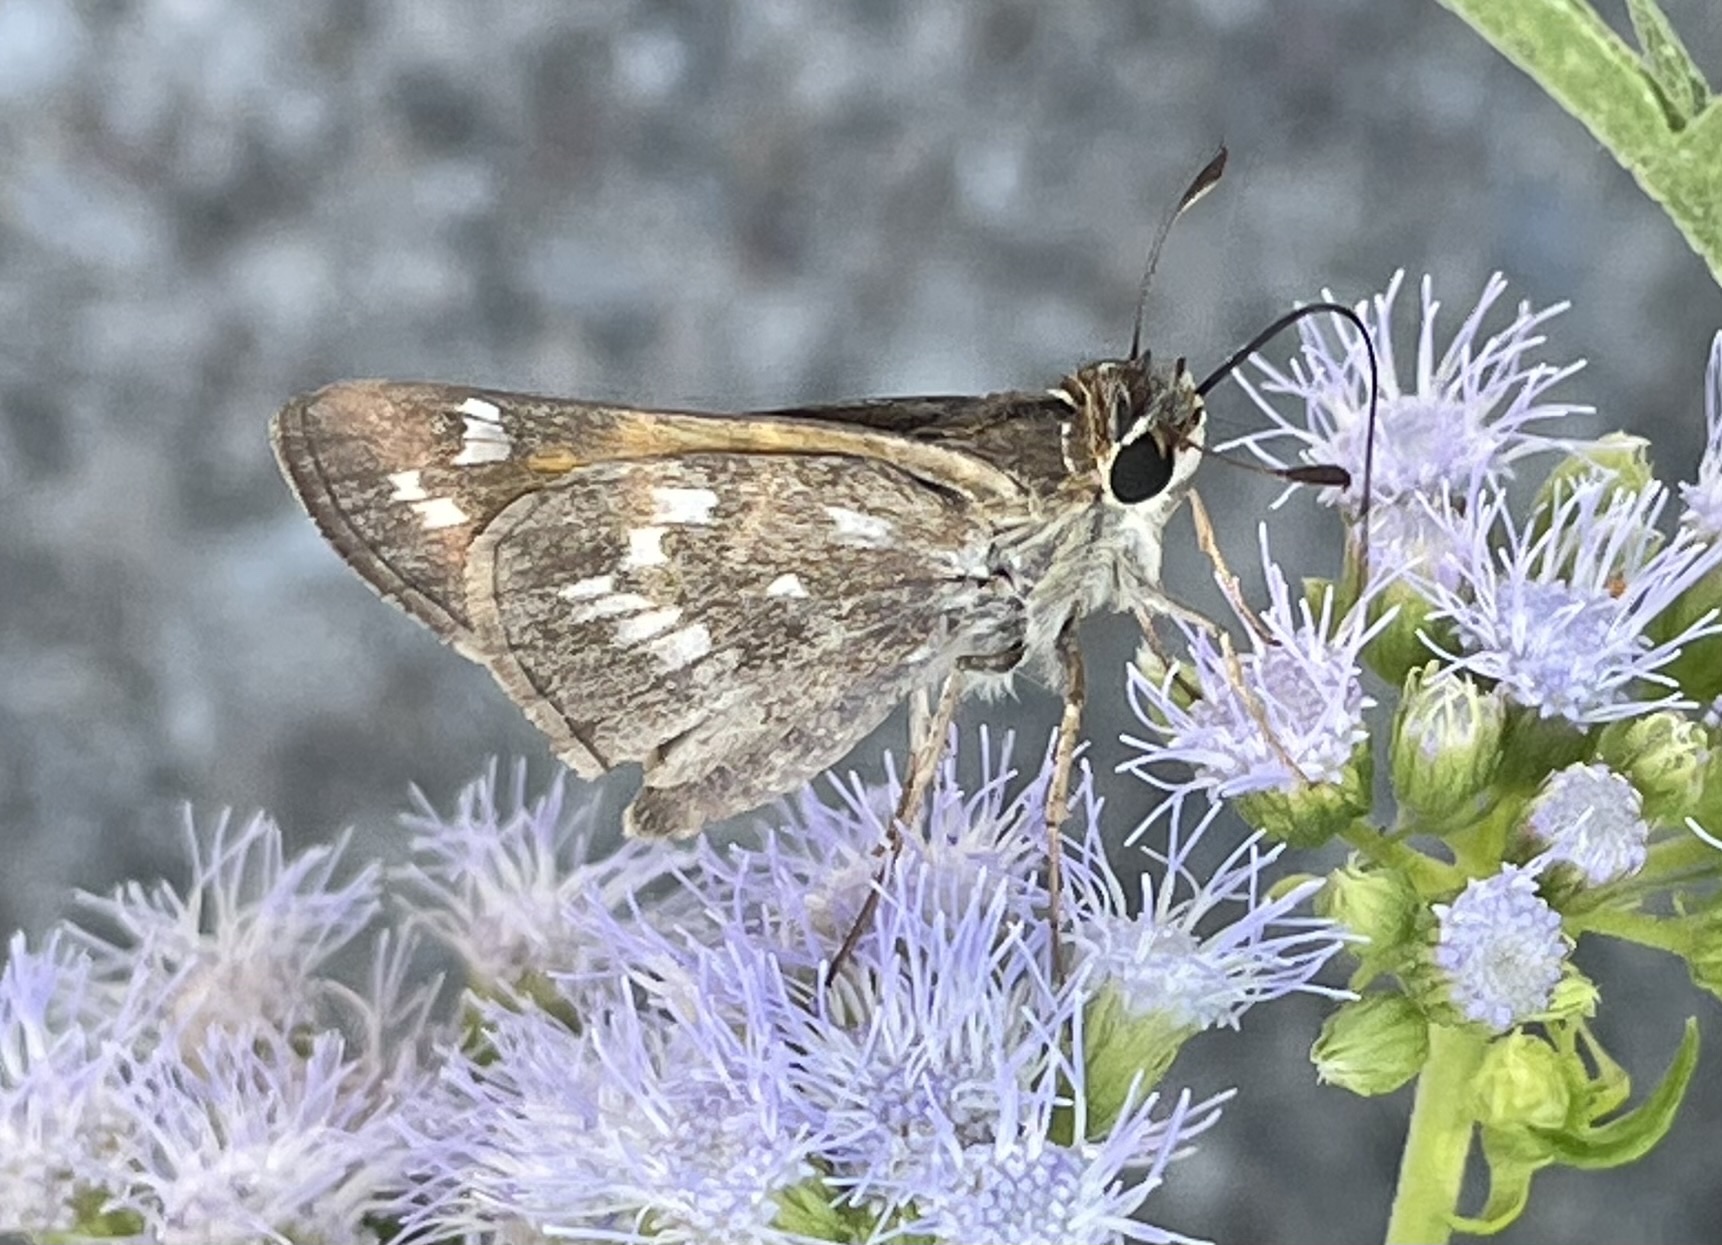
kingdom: Animalia
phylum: Arthropoda
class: Insecta
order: Lepidoptera
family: Hesperiidae
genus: Atalopedes
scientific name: Atalopedes
